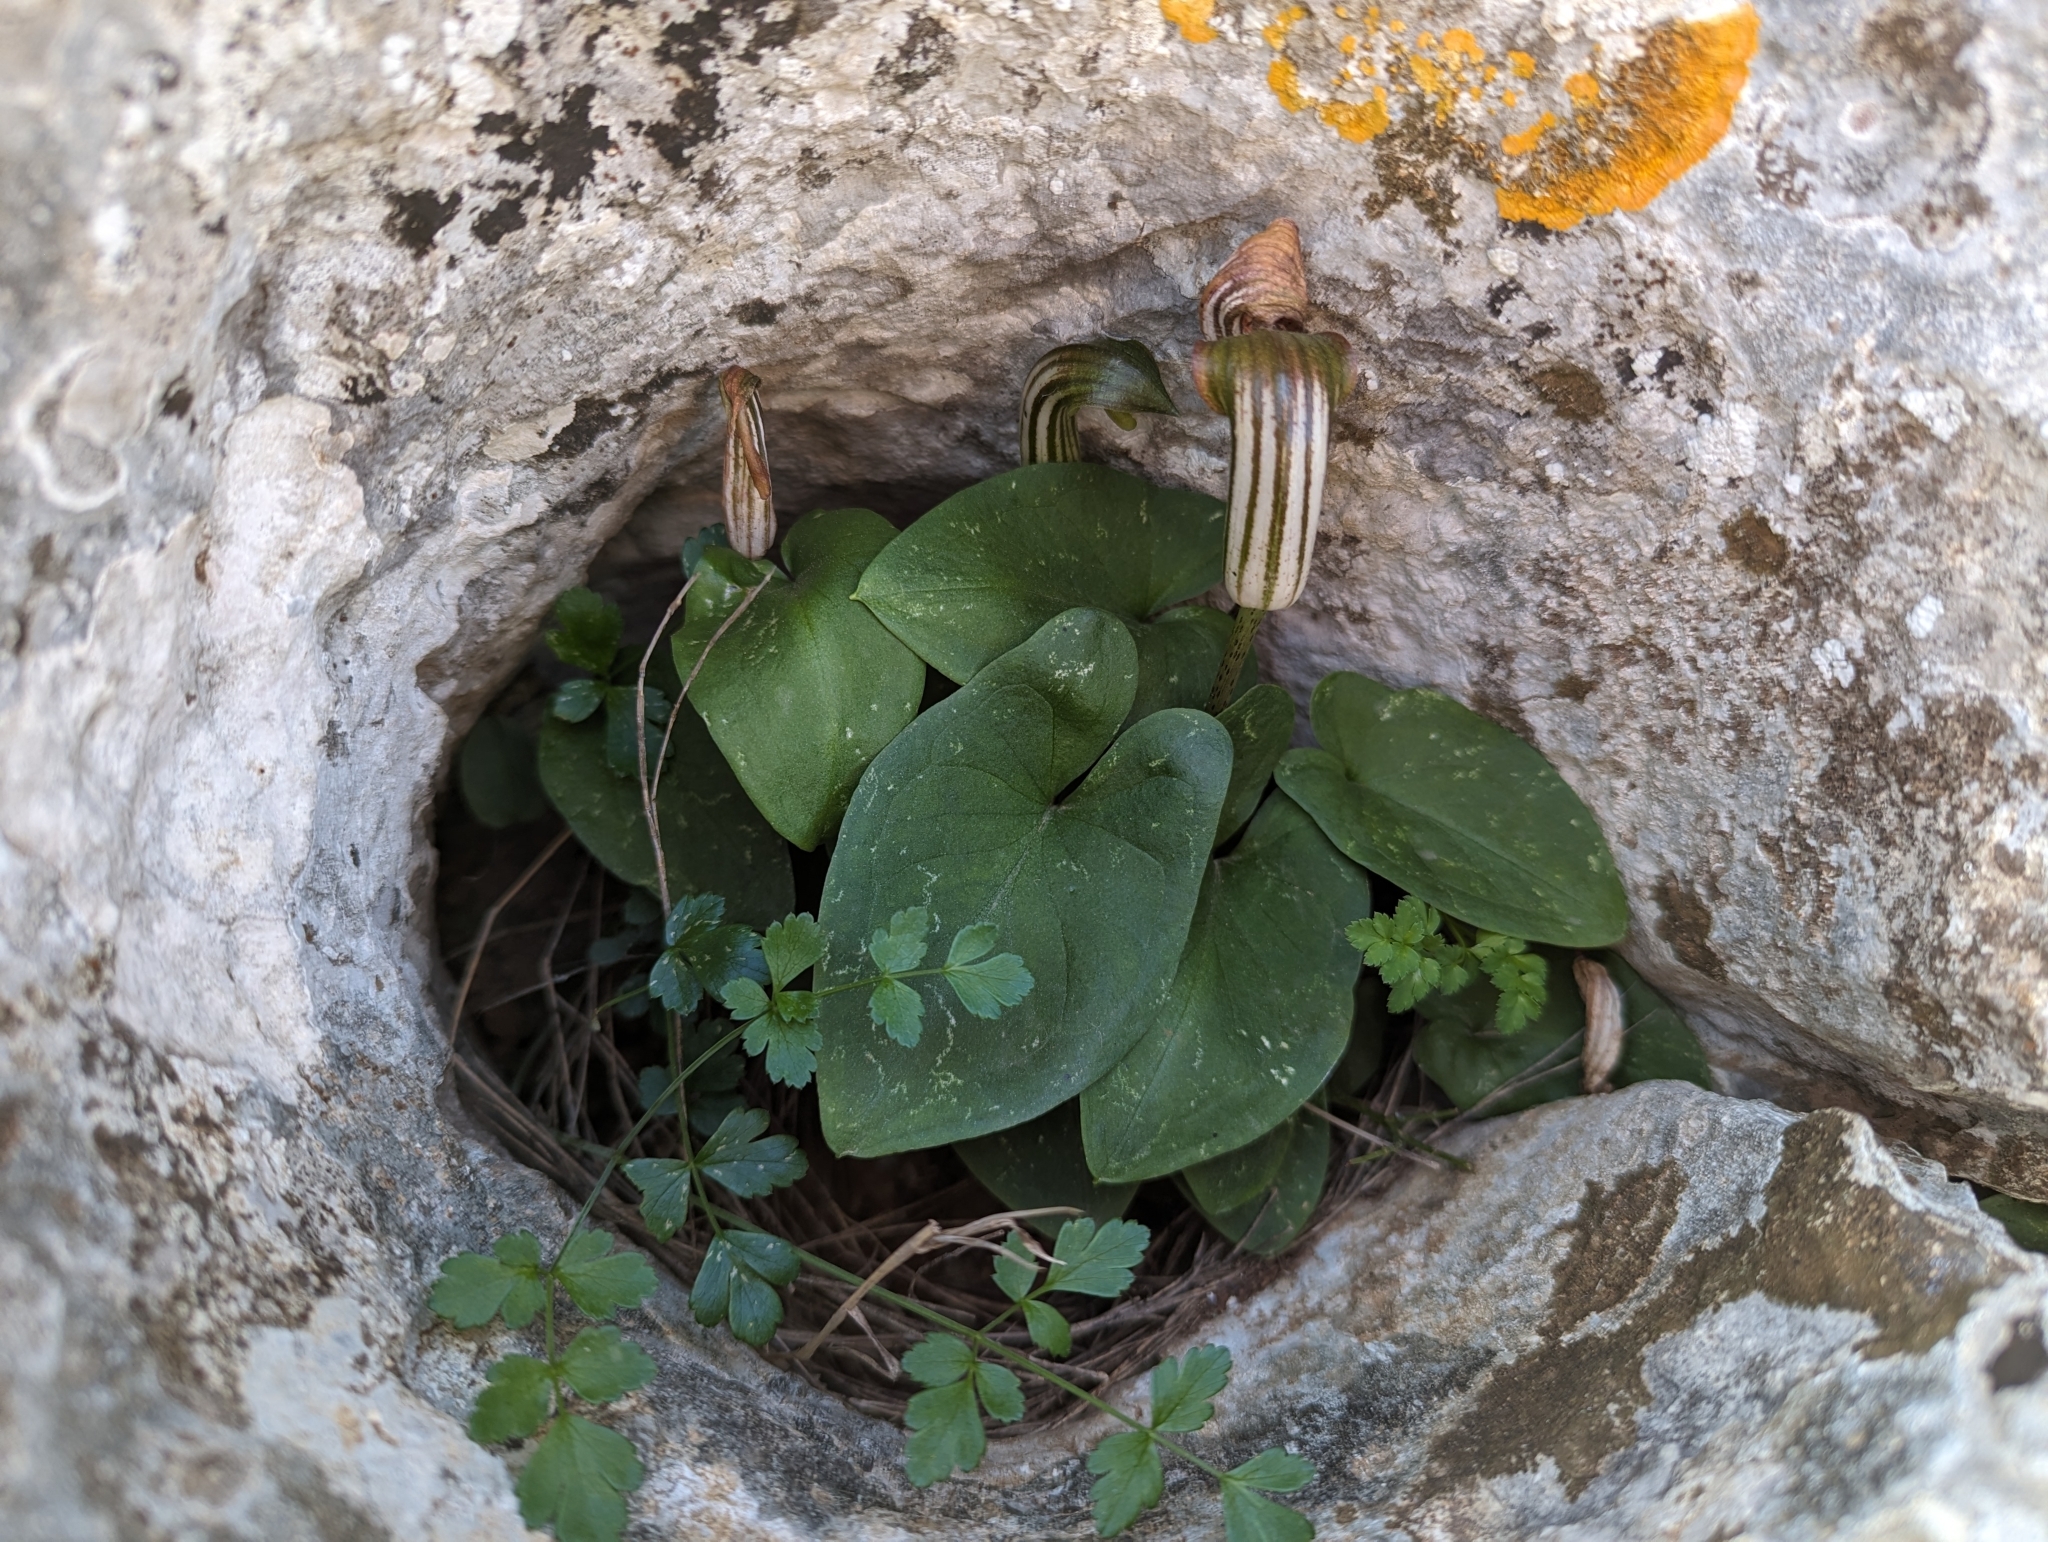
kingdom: Plantae
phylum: Tracheophyta
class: Liliopsida
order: Alismatales
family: Araceae
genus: Arisarum
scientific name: Arisarum vulgare
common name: Common arisarum
